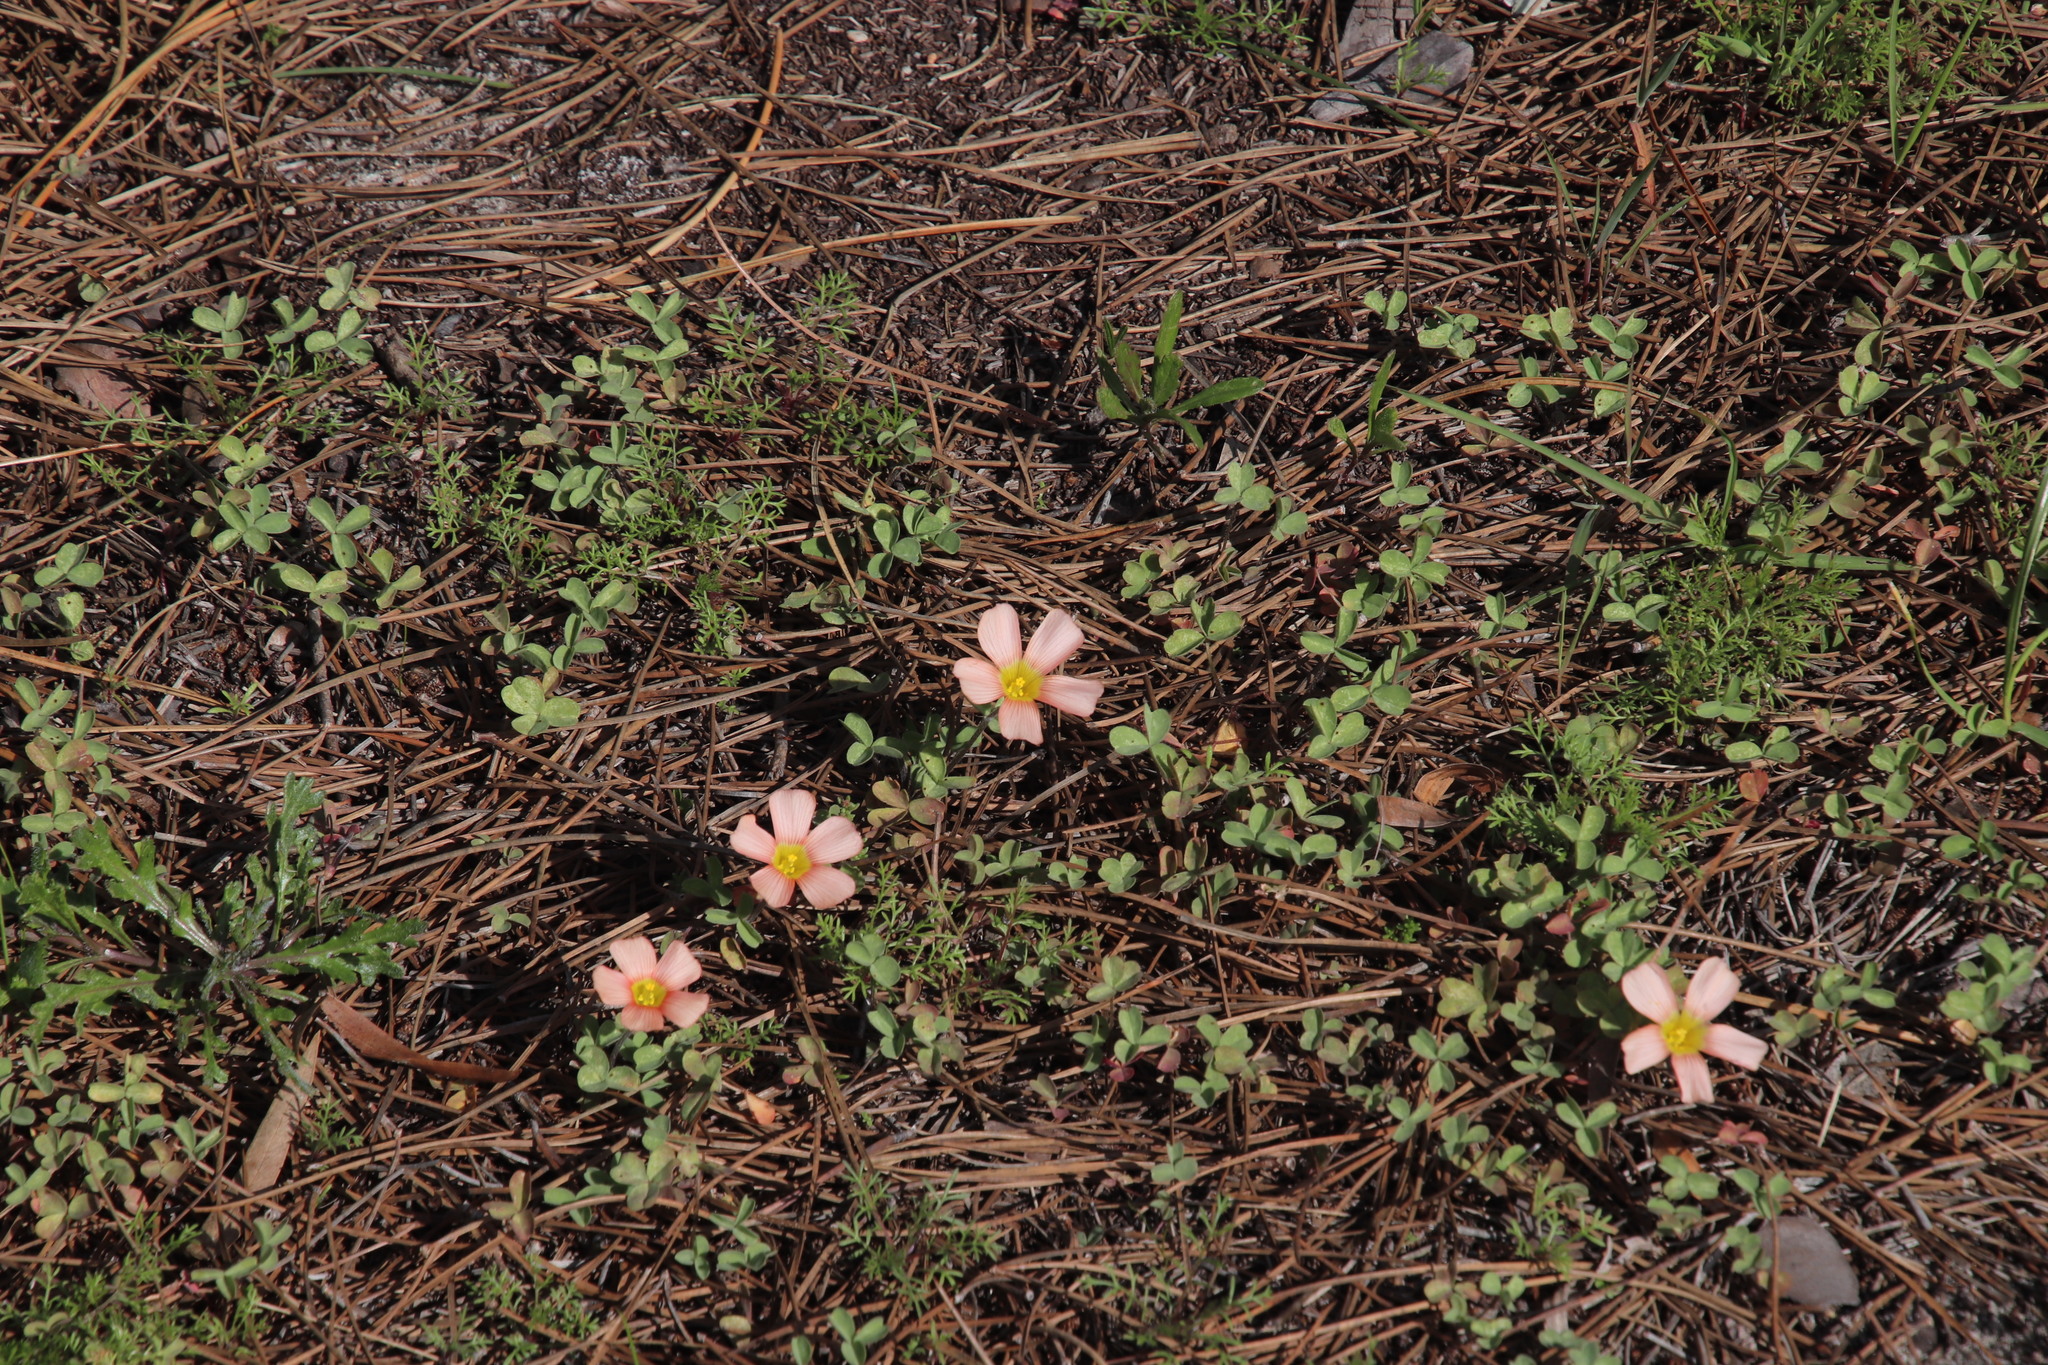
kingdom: Plantae
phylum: Tracheophyta
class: Magnoliopsida
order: Oxalidales
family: Oxalidaceae
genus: Oxalis
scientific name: Oxalis obtusa
